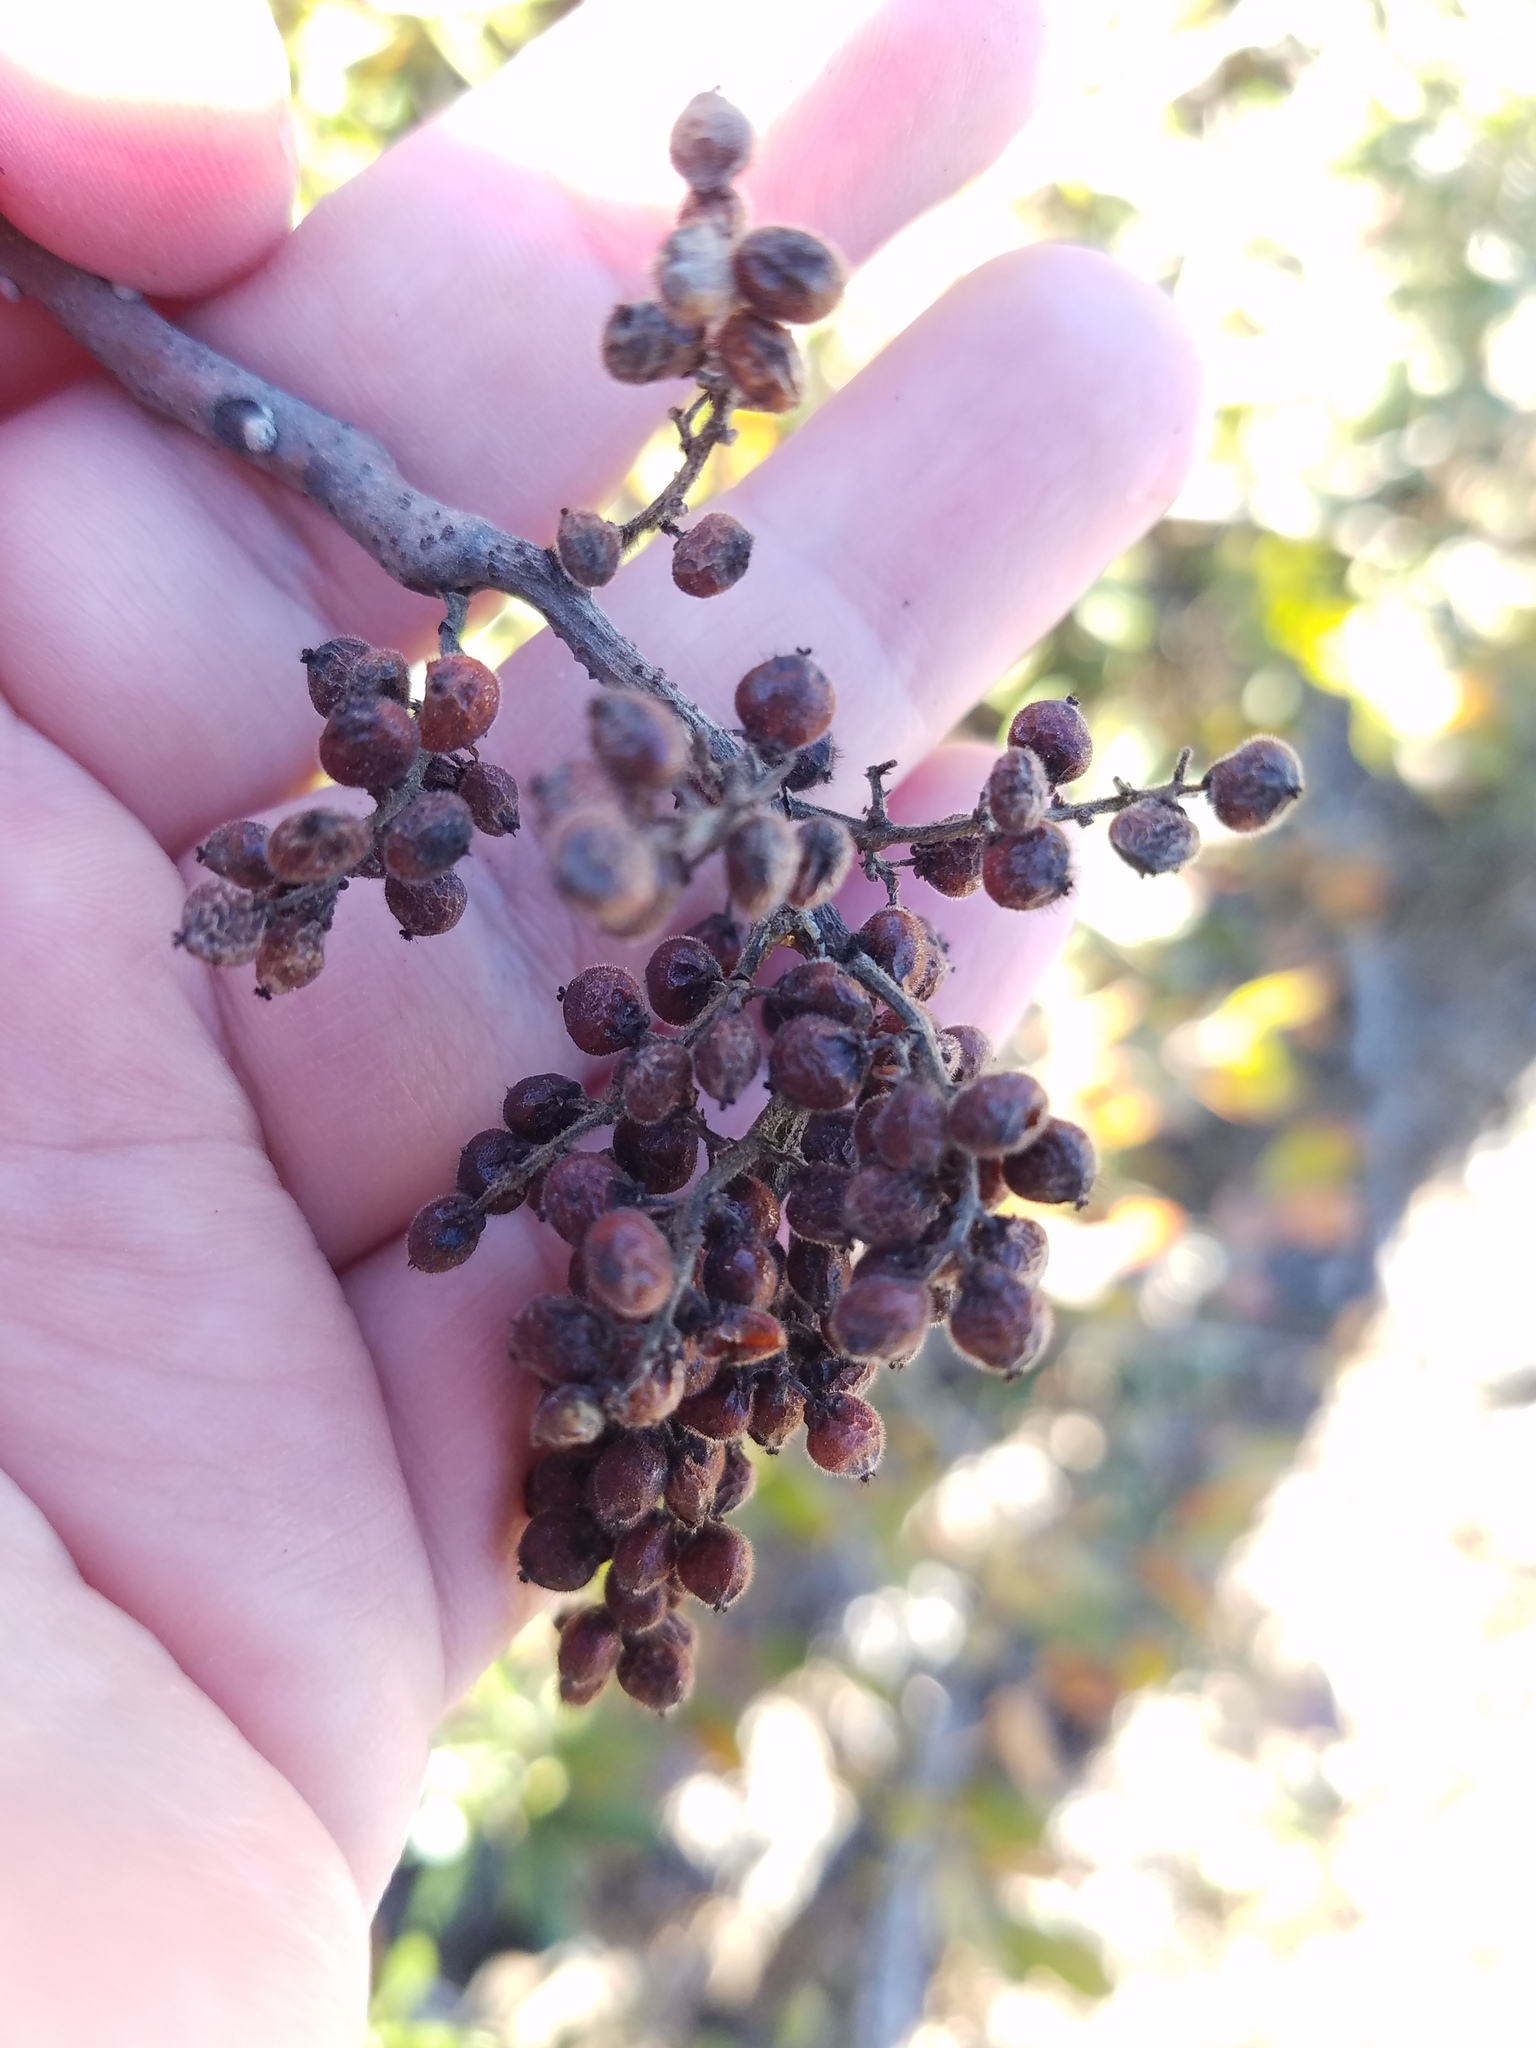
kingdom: Plantae
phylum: Tracheophyta
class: Magnoliopsida
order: Sapindales
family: Anacardiaceae
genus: Rhus
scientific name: Rhus copallina
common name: Shining sumac
